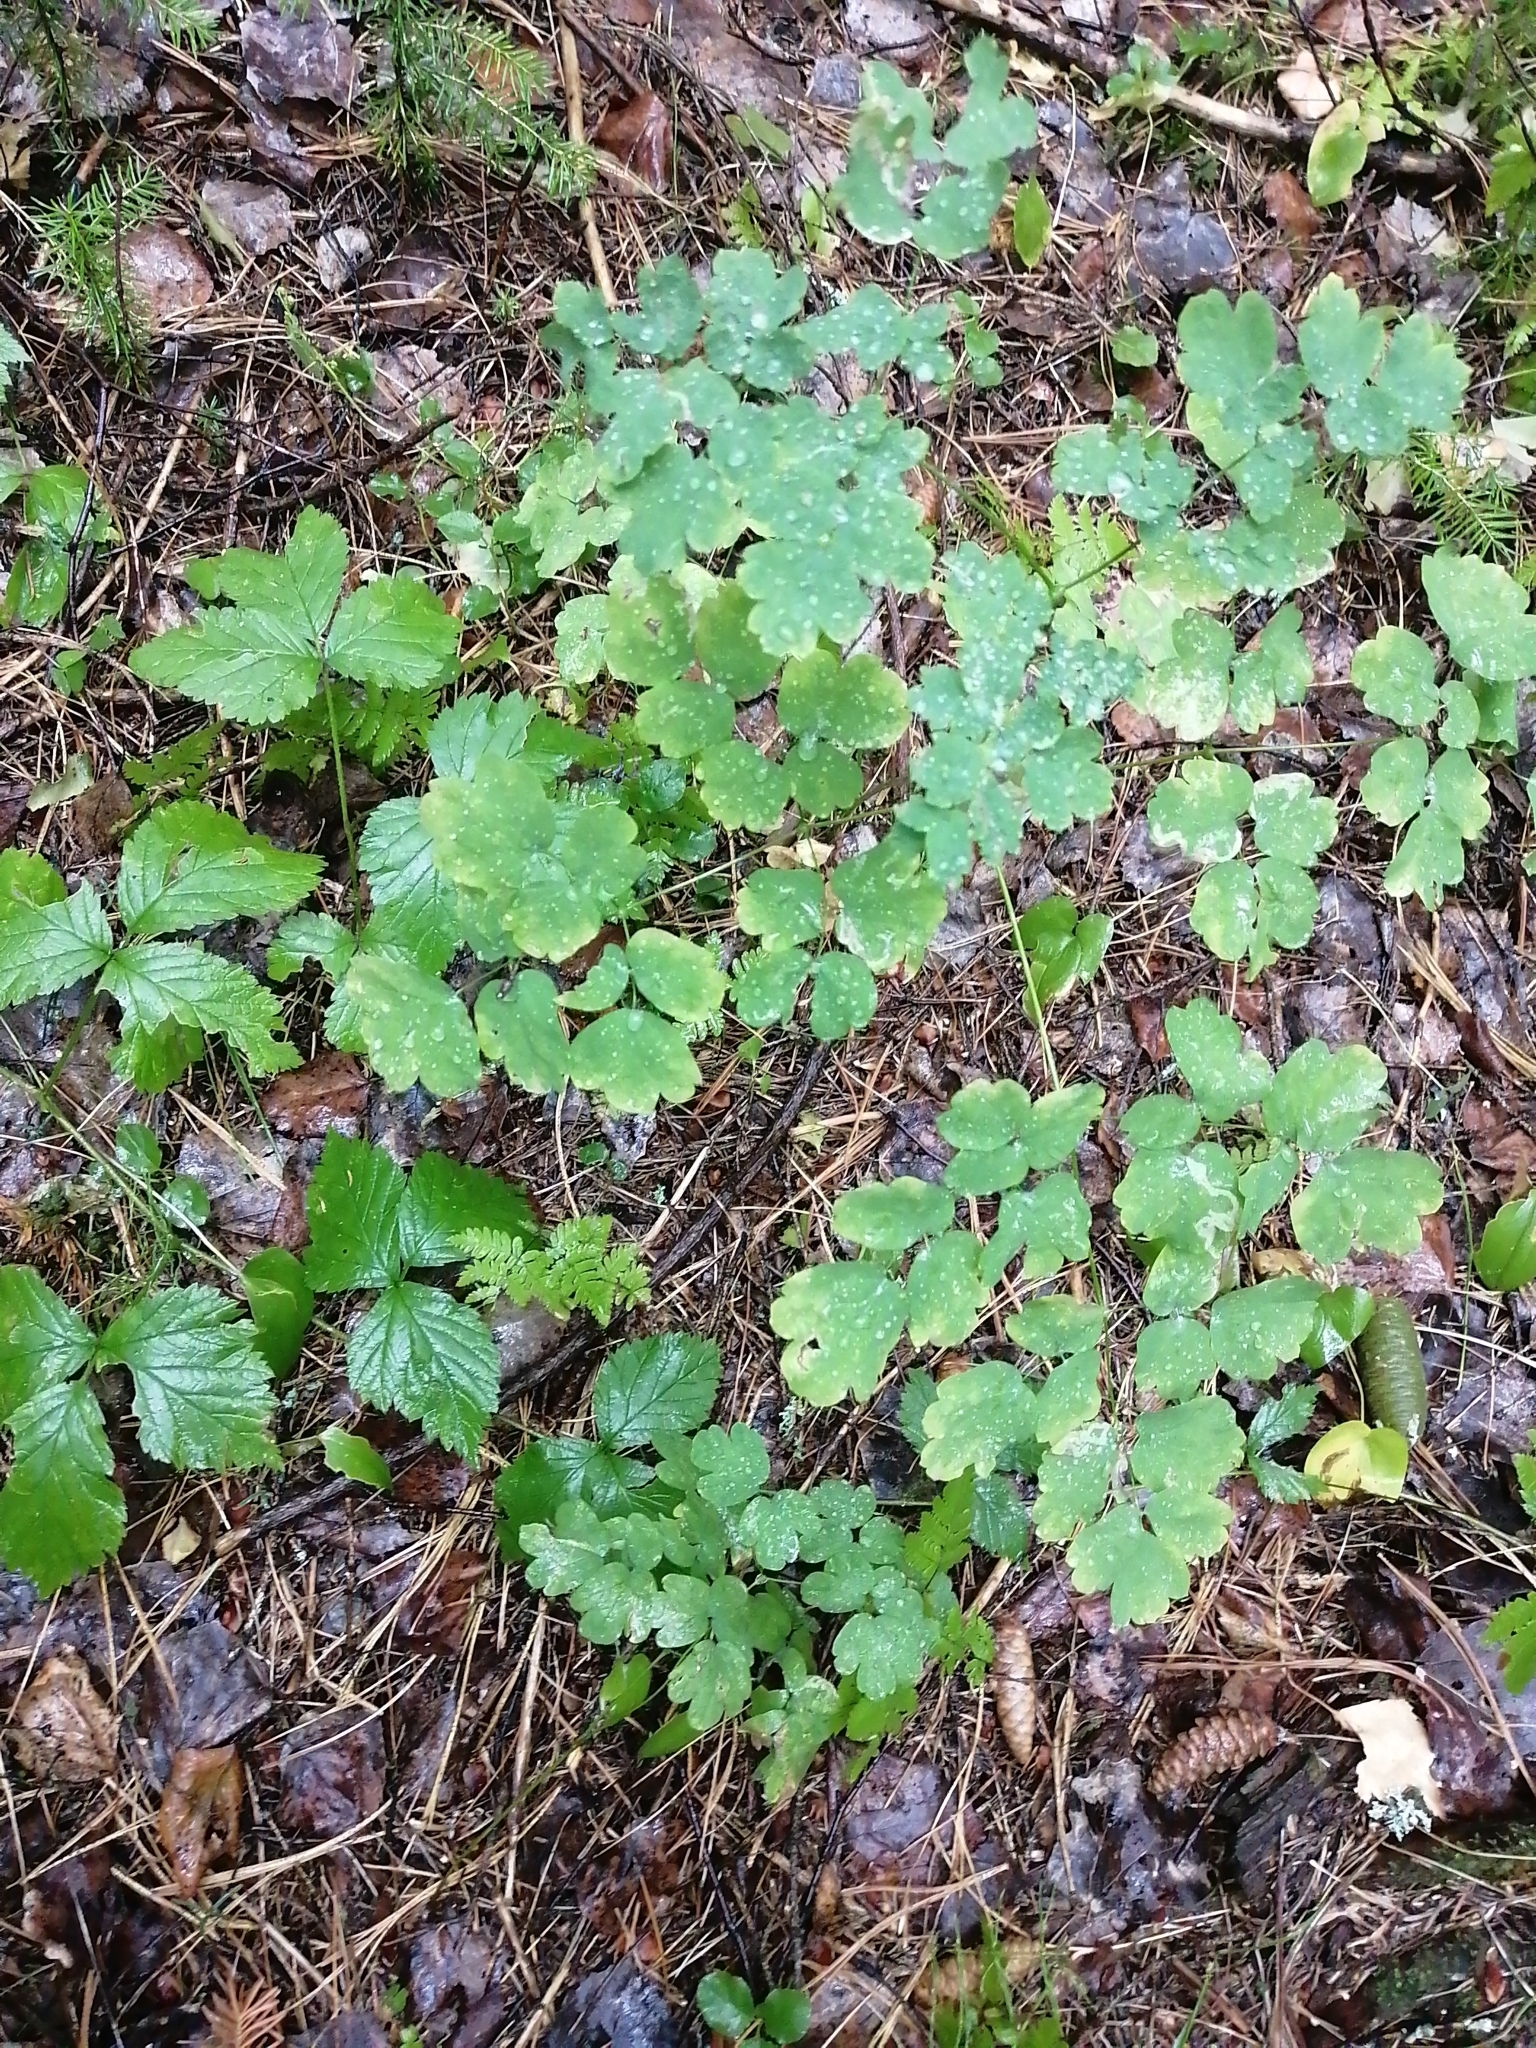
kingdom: Plantae
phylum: Tracheophyta
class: Magnoliopsida
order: Ranunculales
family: Ranunculaceae
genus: Thalictrum
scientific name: Thalictrum minus
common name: Lesser meadow-rue
